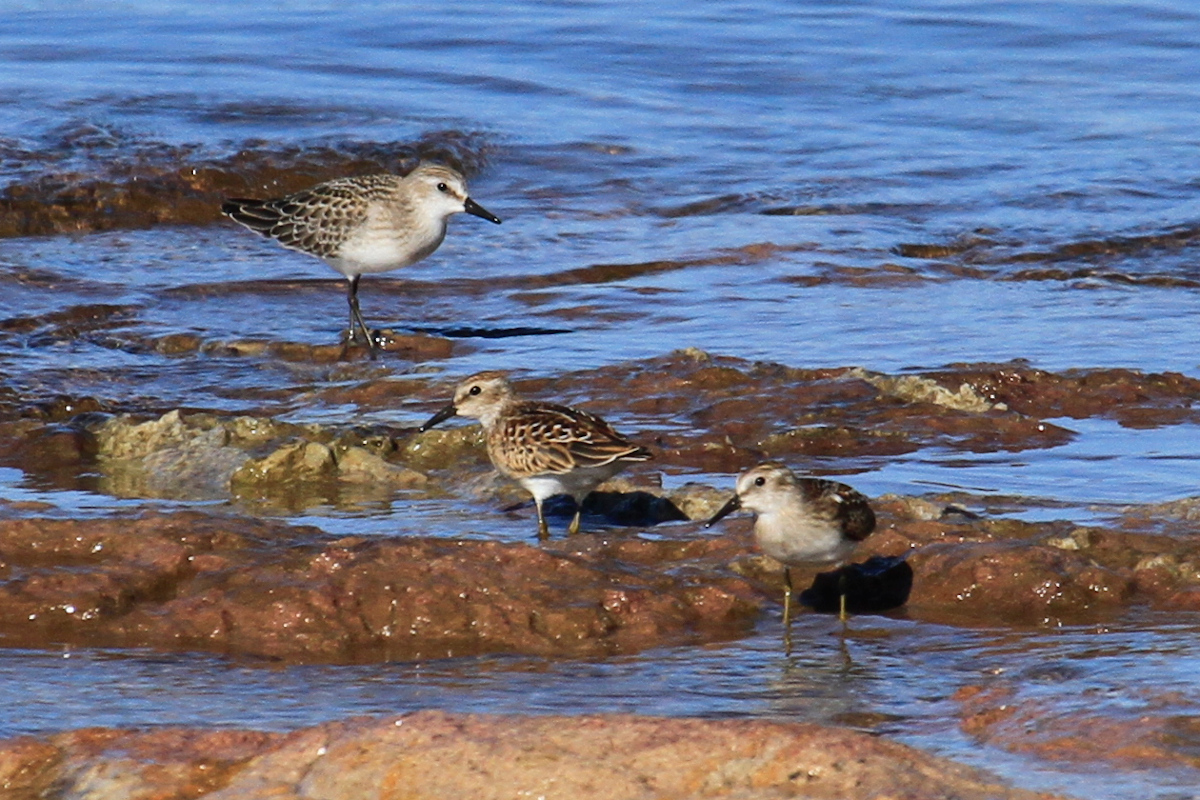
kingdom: Animalia
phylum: Chordata
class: Aves
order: Charadriiformes
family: Scolopacidae
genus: Calidris
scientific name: Calidris pusilla
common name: Semipalmated sandpiper
